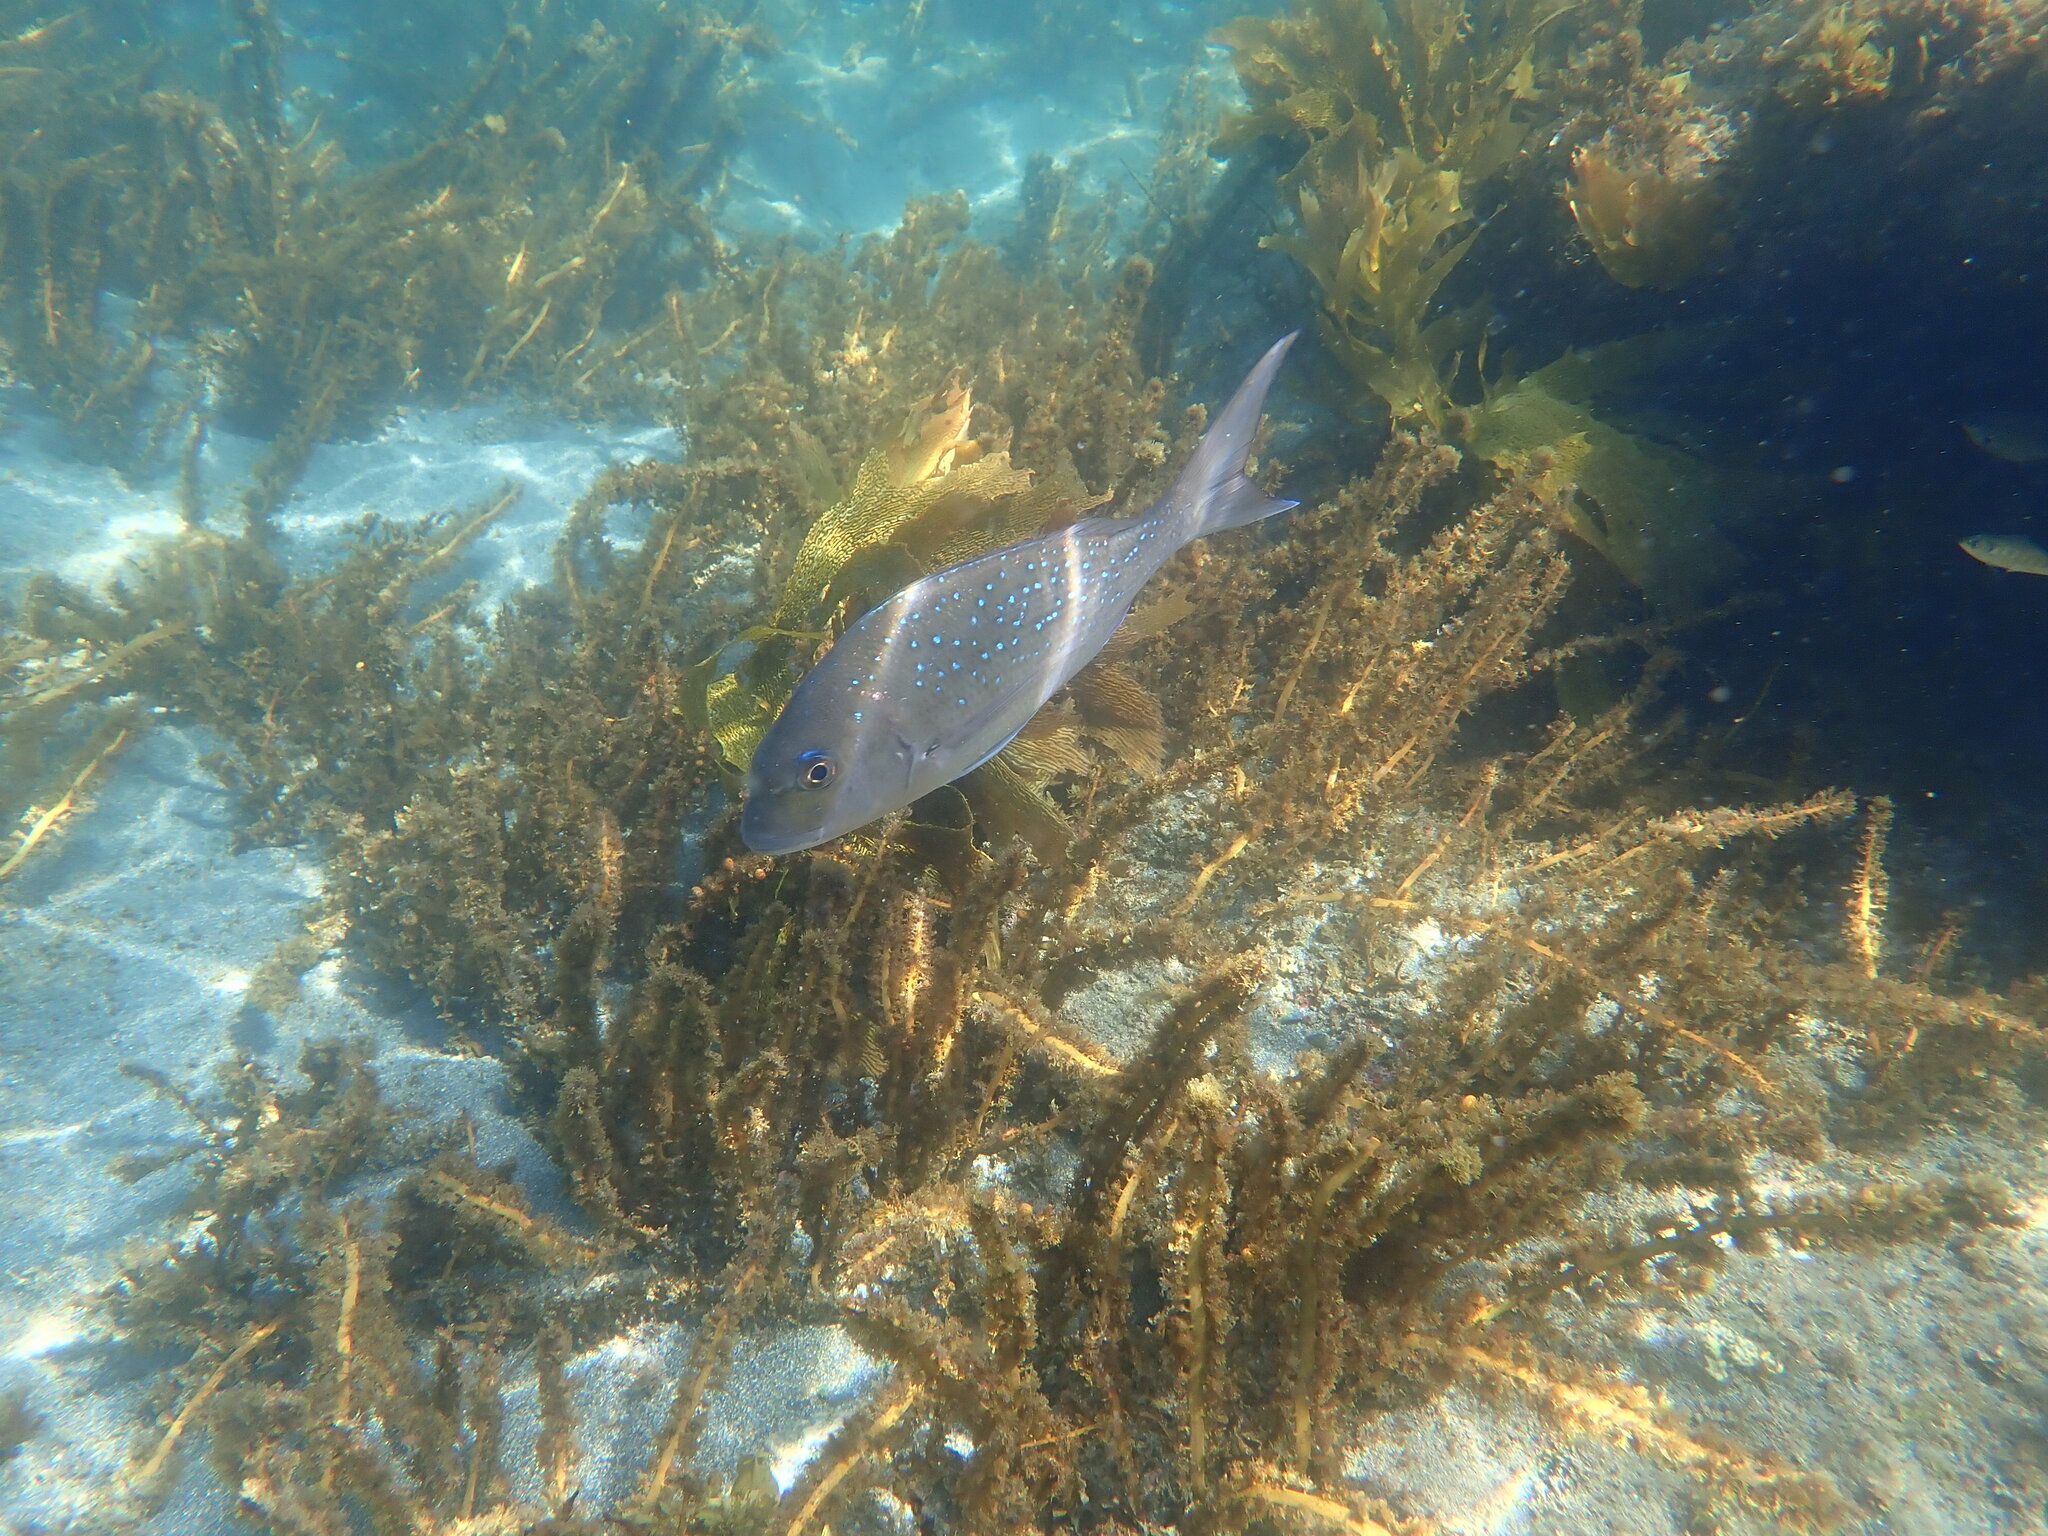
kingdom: Animalia
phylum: Chordata
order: Perciformes
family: Sparidae
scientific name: Sparidae
